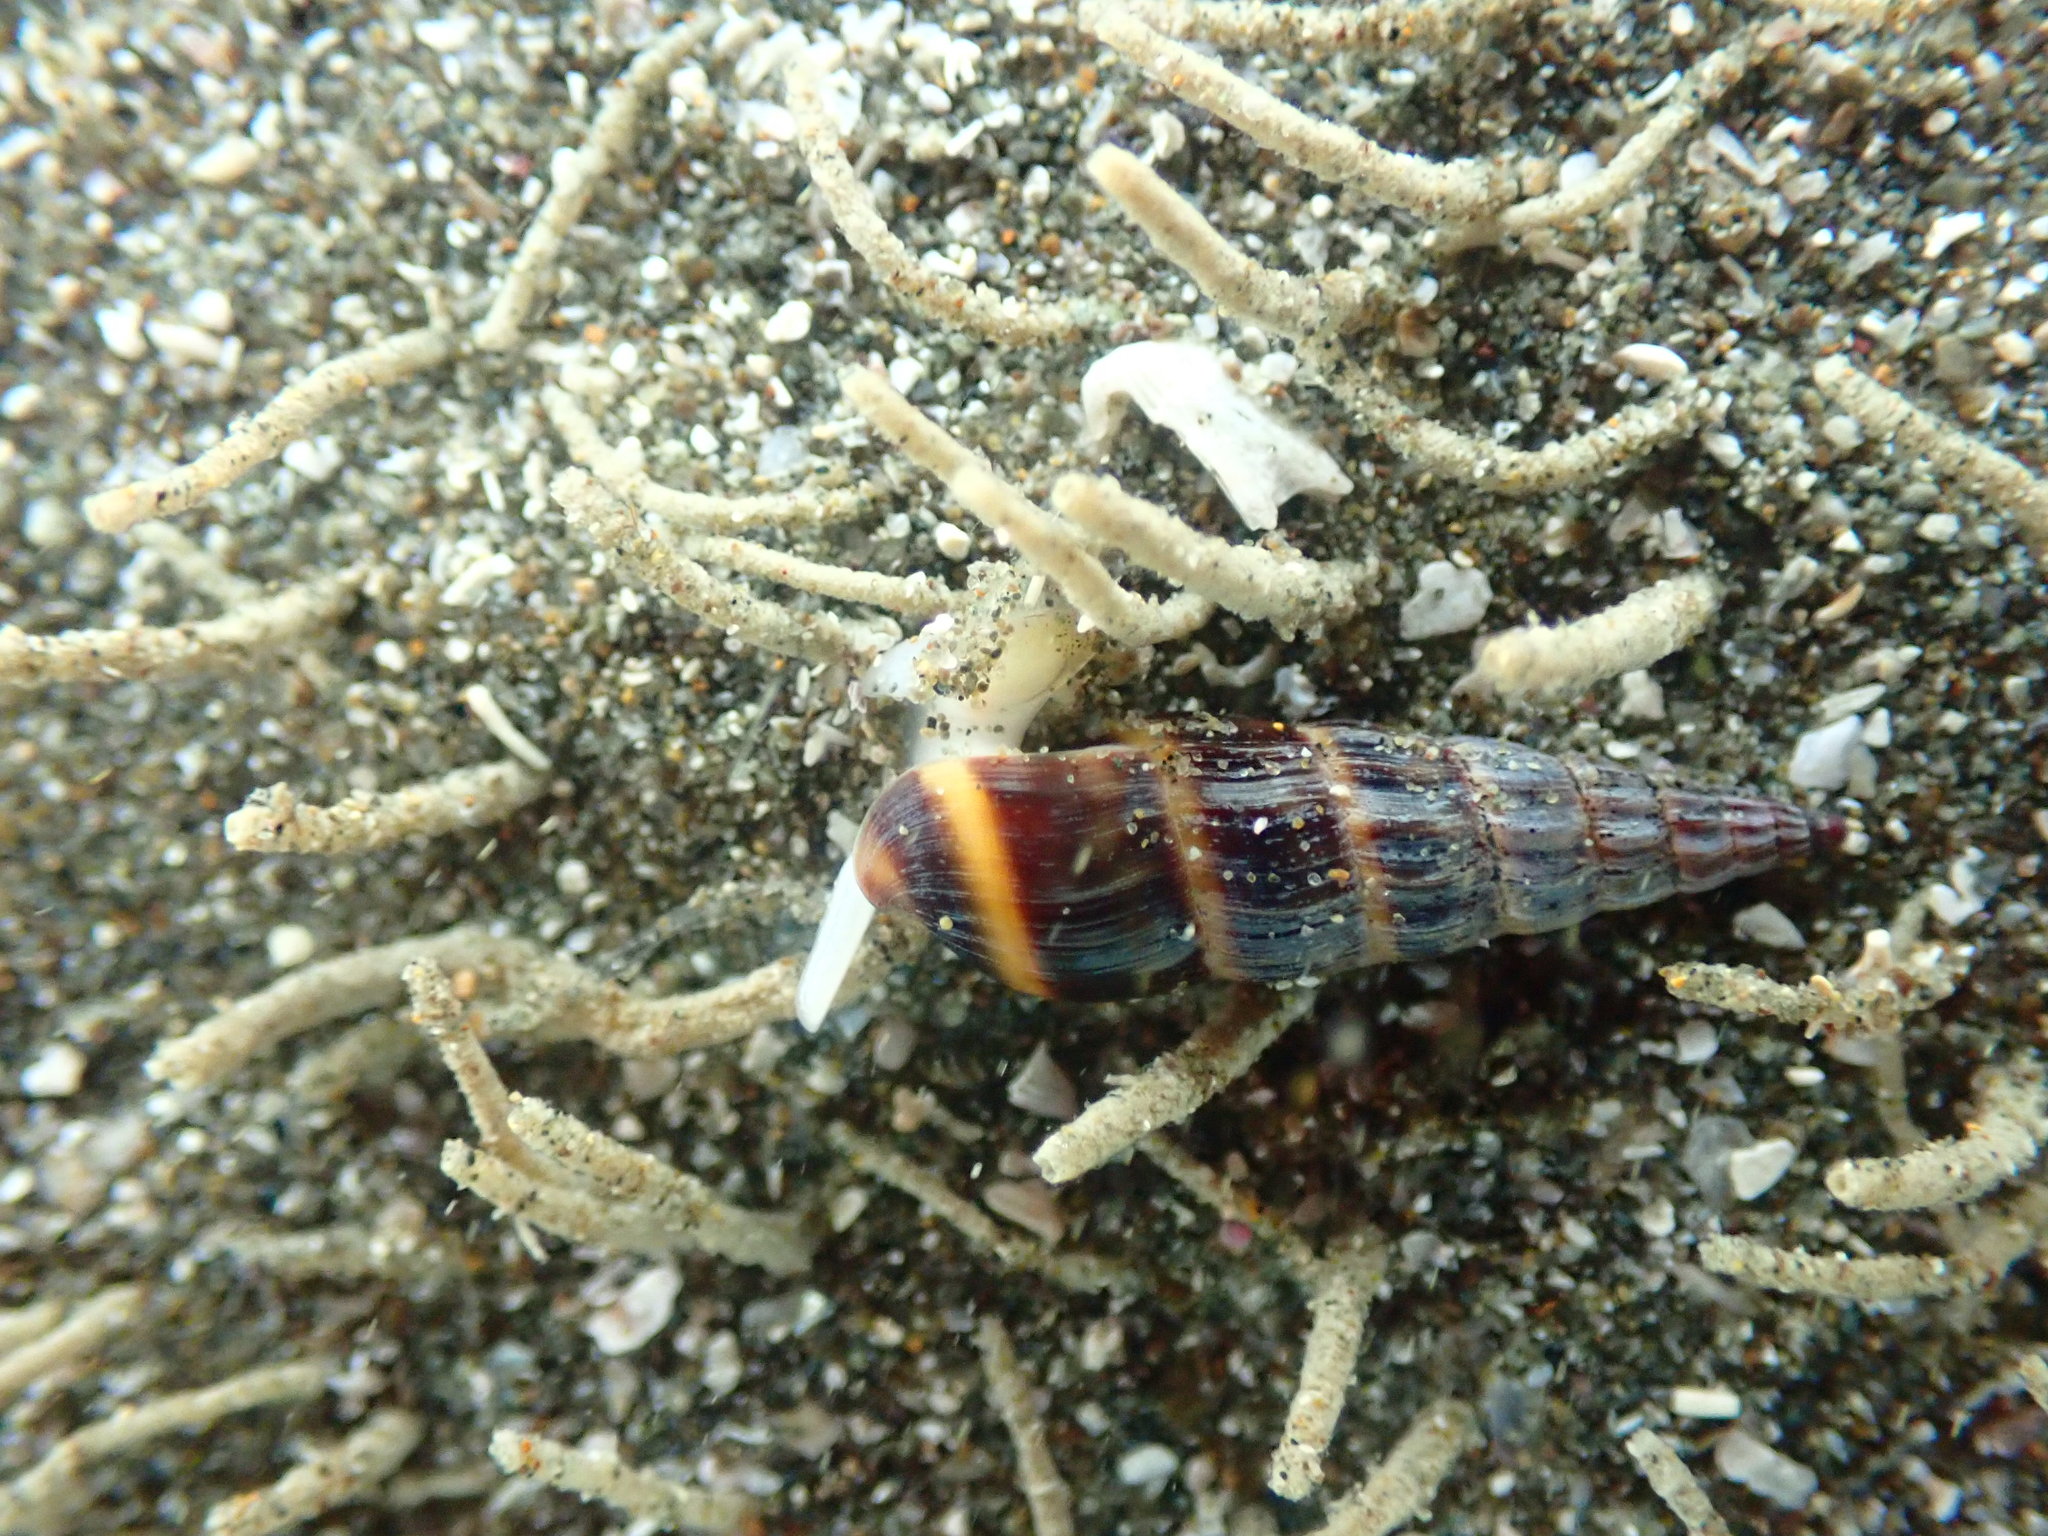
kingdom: Animalia
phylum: Mollusca
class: Gastropoda
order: Neogastropoda
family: Terebridae
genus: Duplicaria
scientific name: Duplicaria tristis
